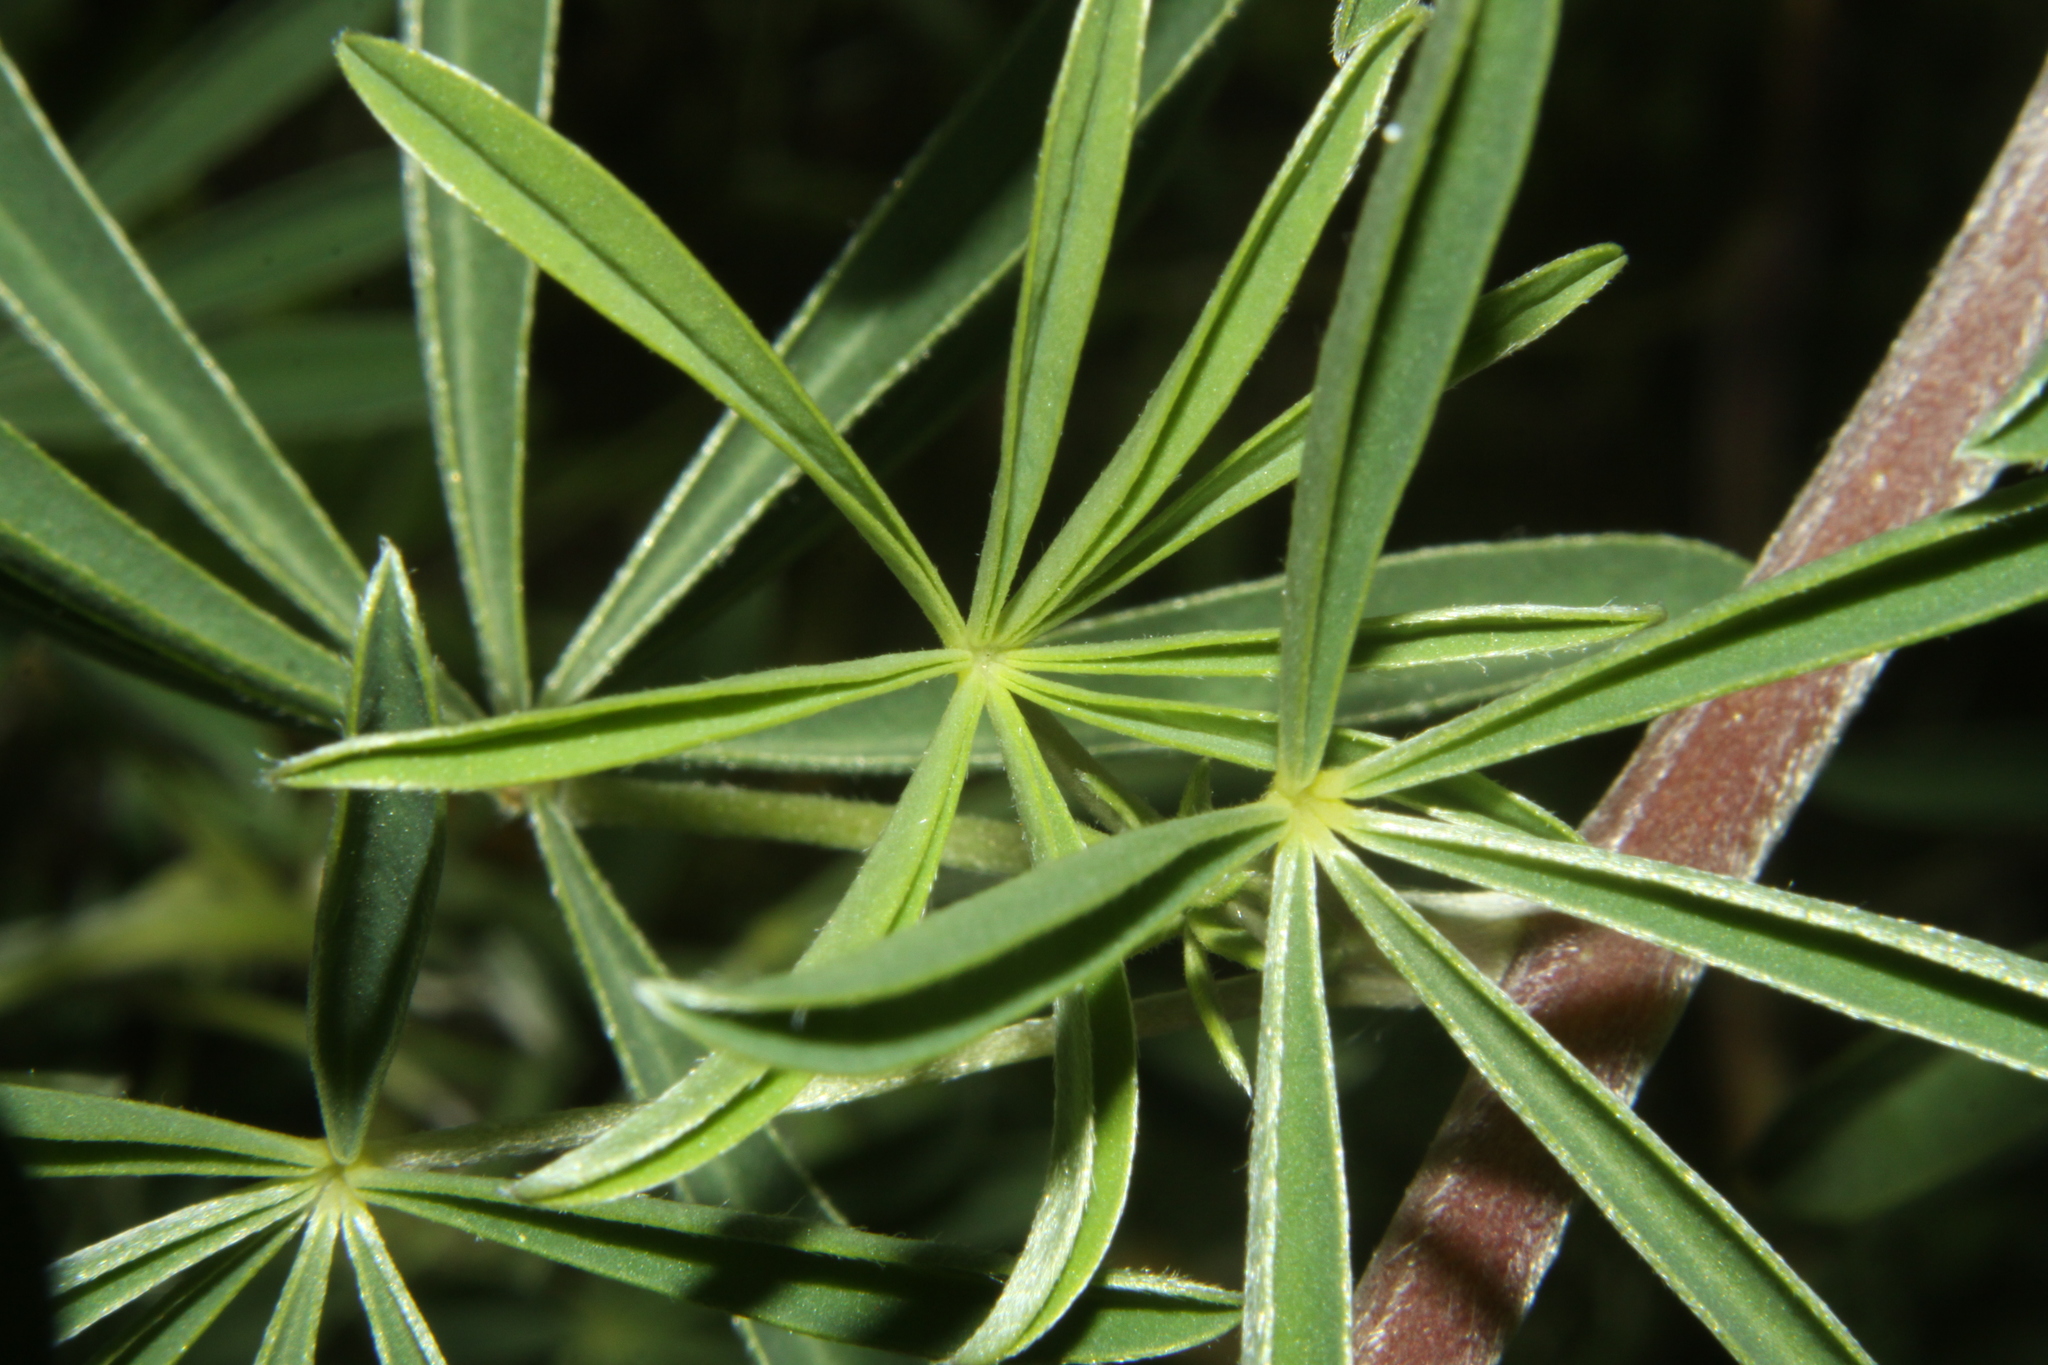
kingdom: Plantae
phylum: Tracheophyta
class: Magnoliopsida
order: Fabales
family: Fabaceae
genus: Lupinus
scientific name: Lupinus arboreus
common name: Yellow bush lupine
